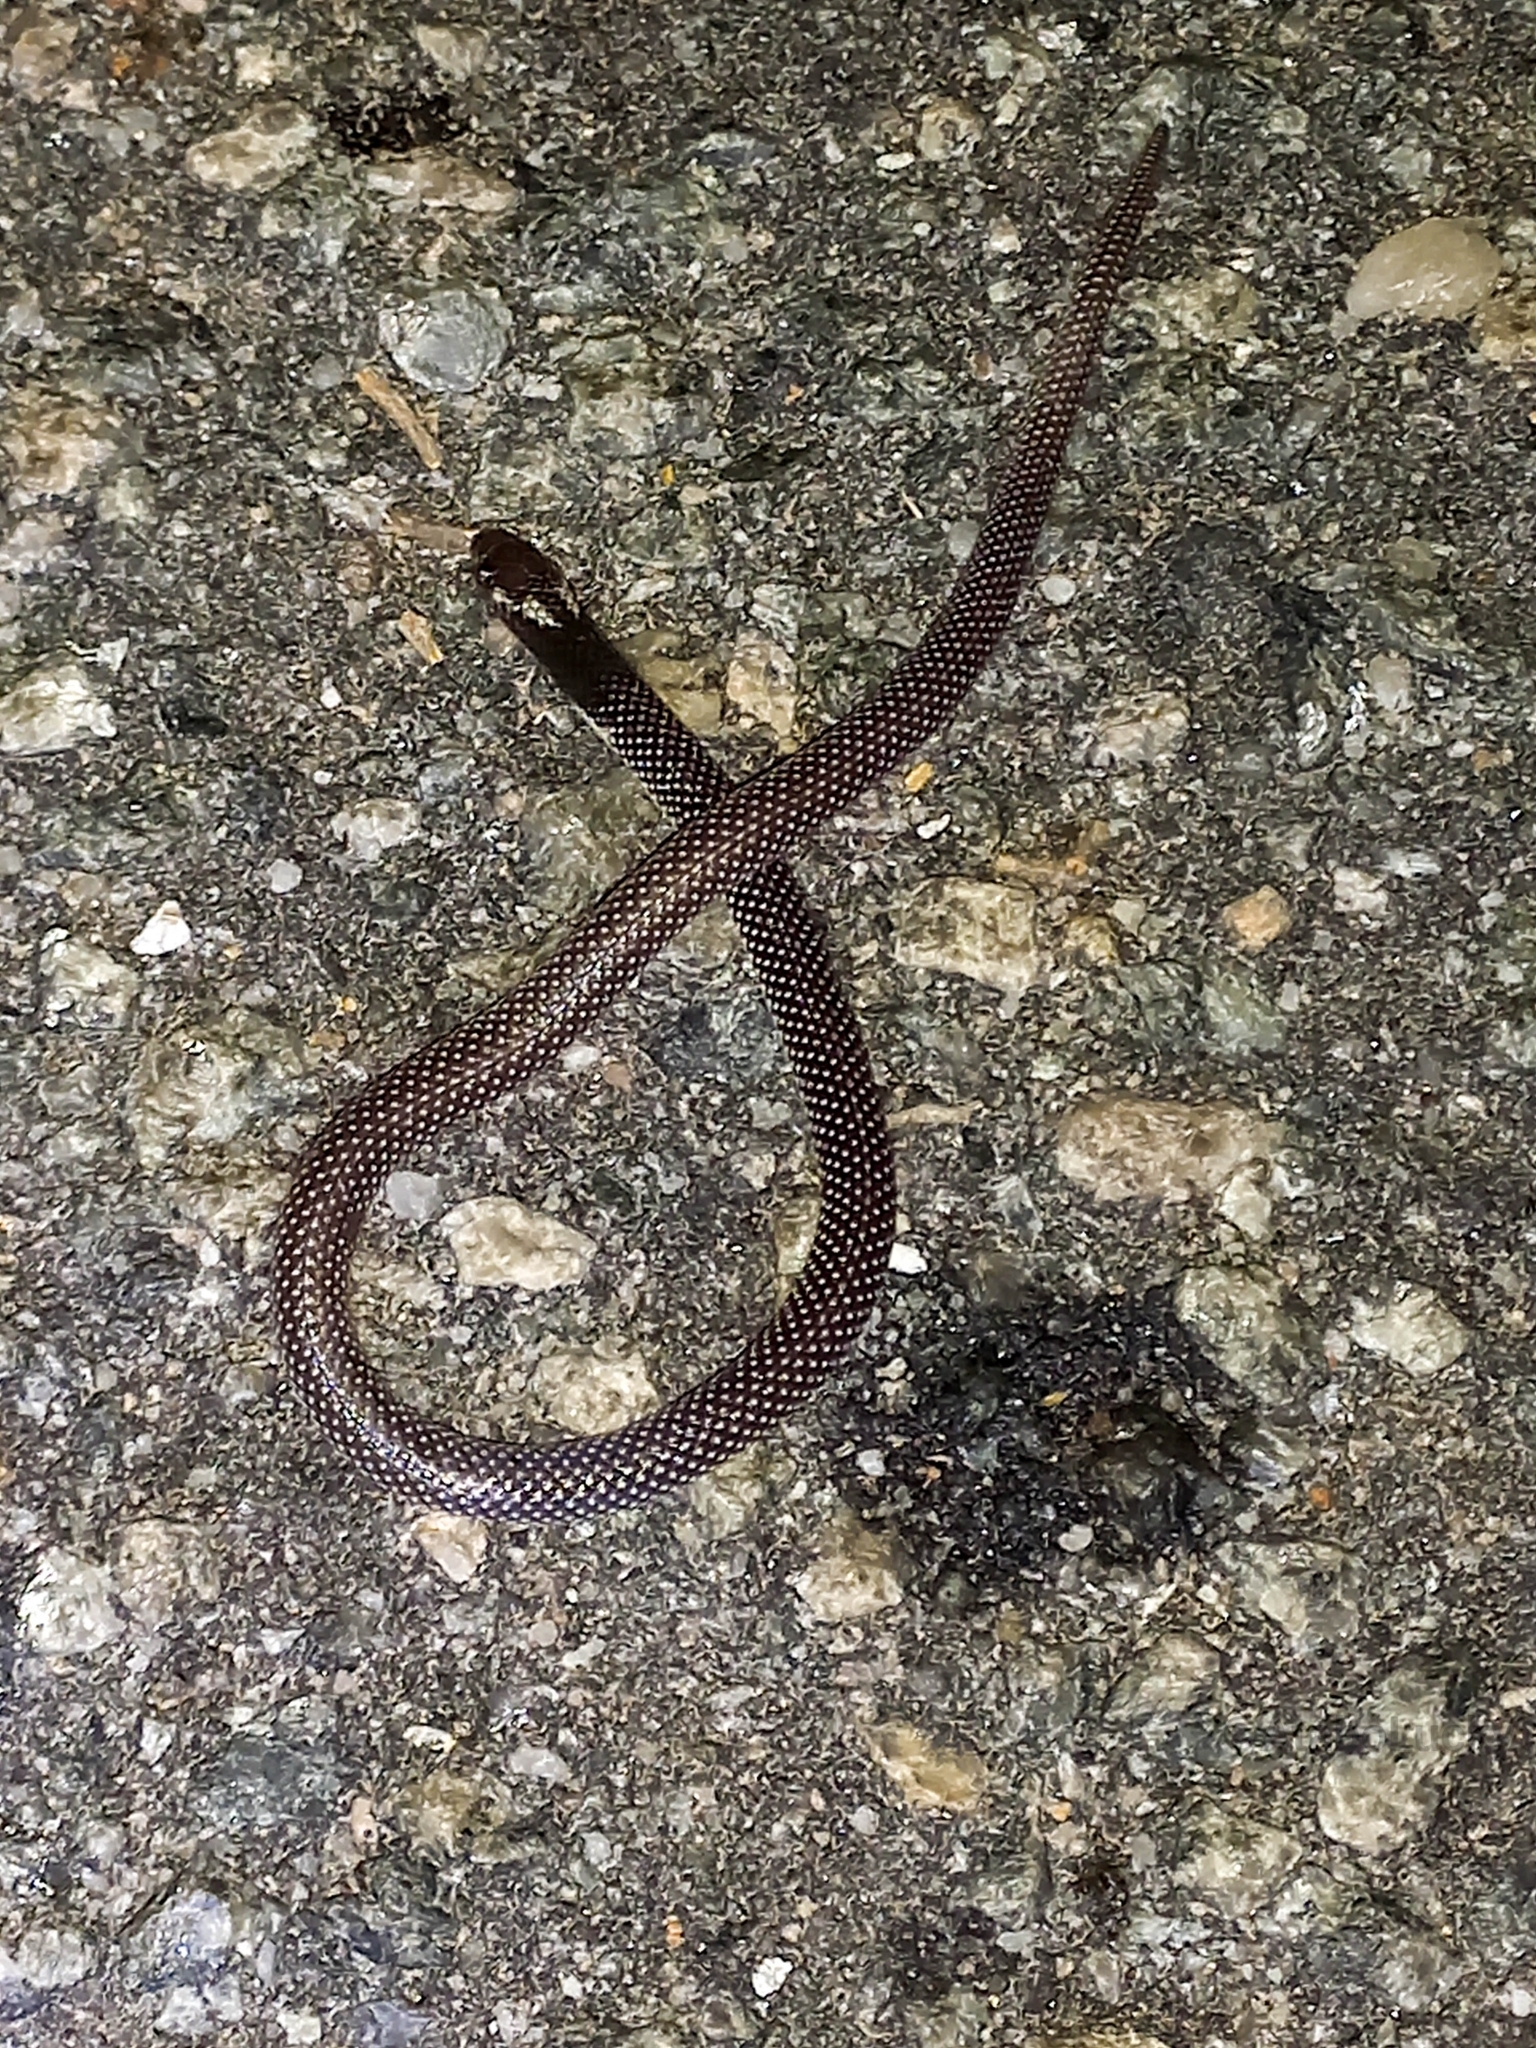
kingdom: Animalia
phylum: Chordata
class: Squamata
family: Prosymnidae
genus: Prosymna
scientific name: Prosymna greigerti
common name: Southern sahel speckled shovel-snout
